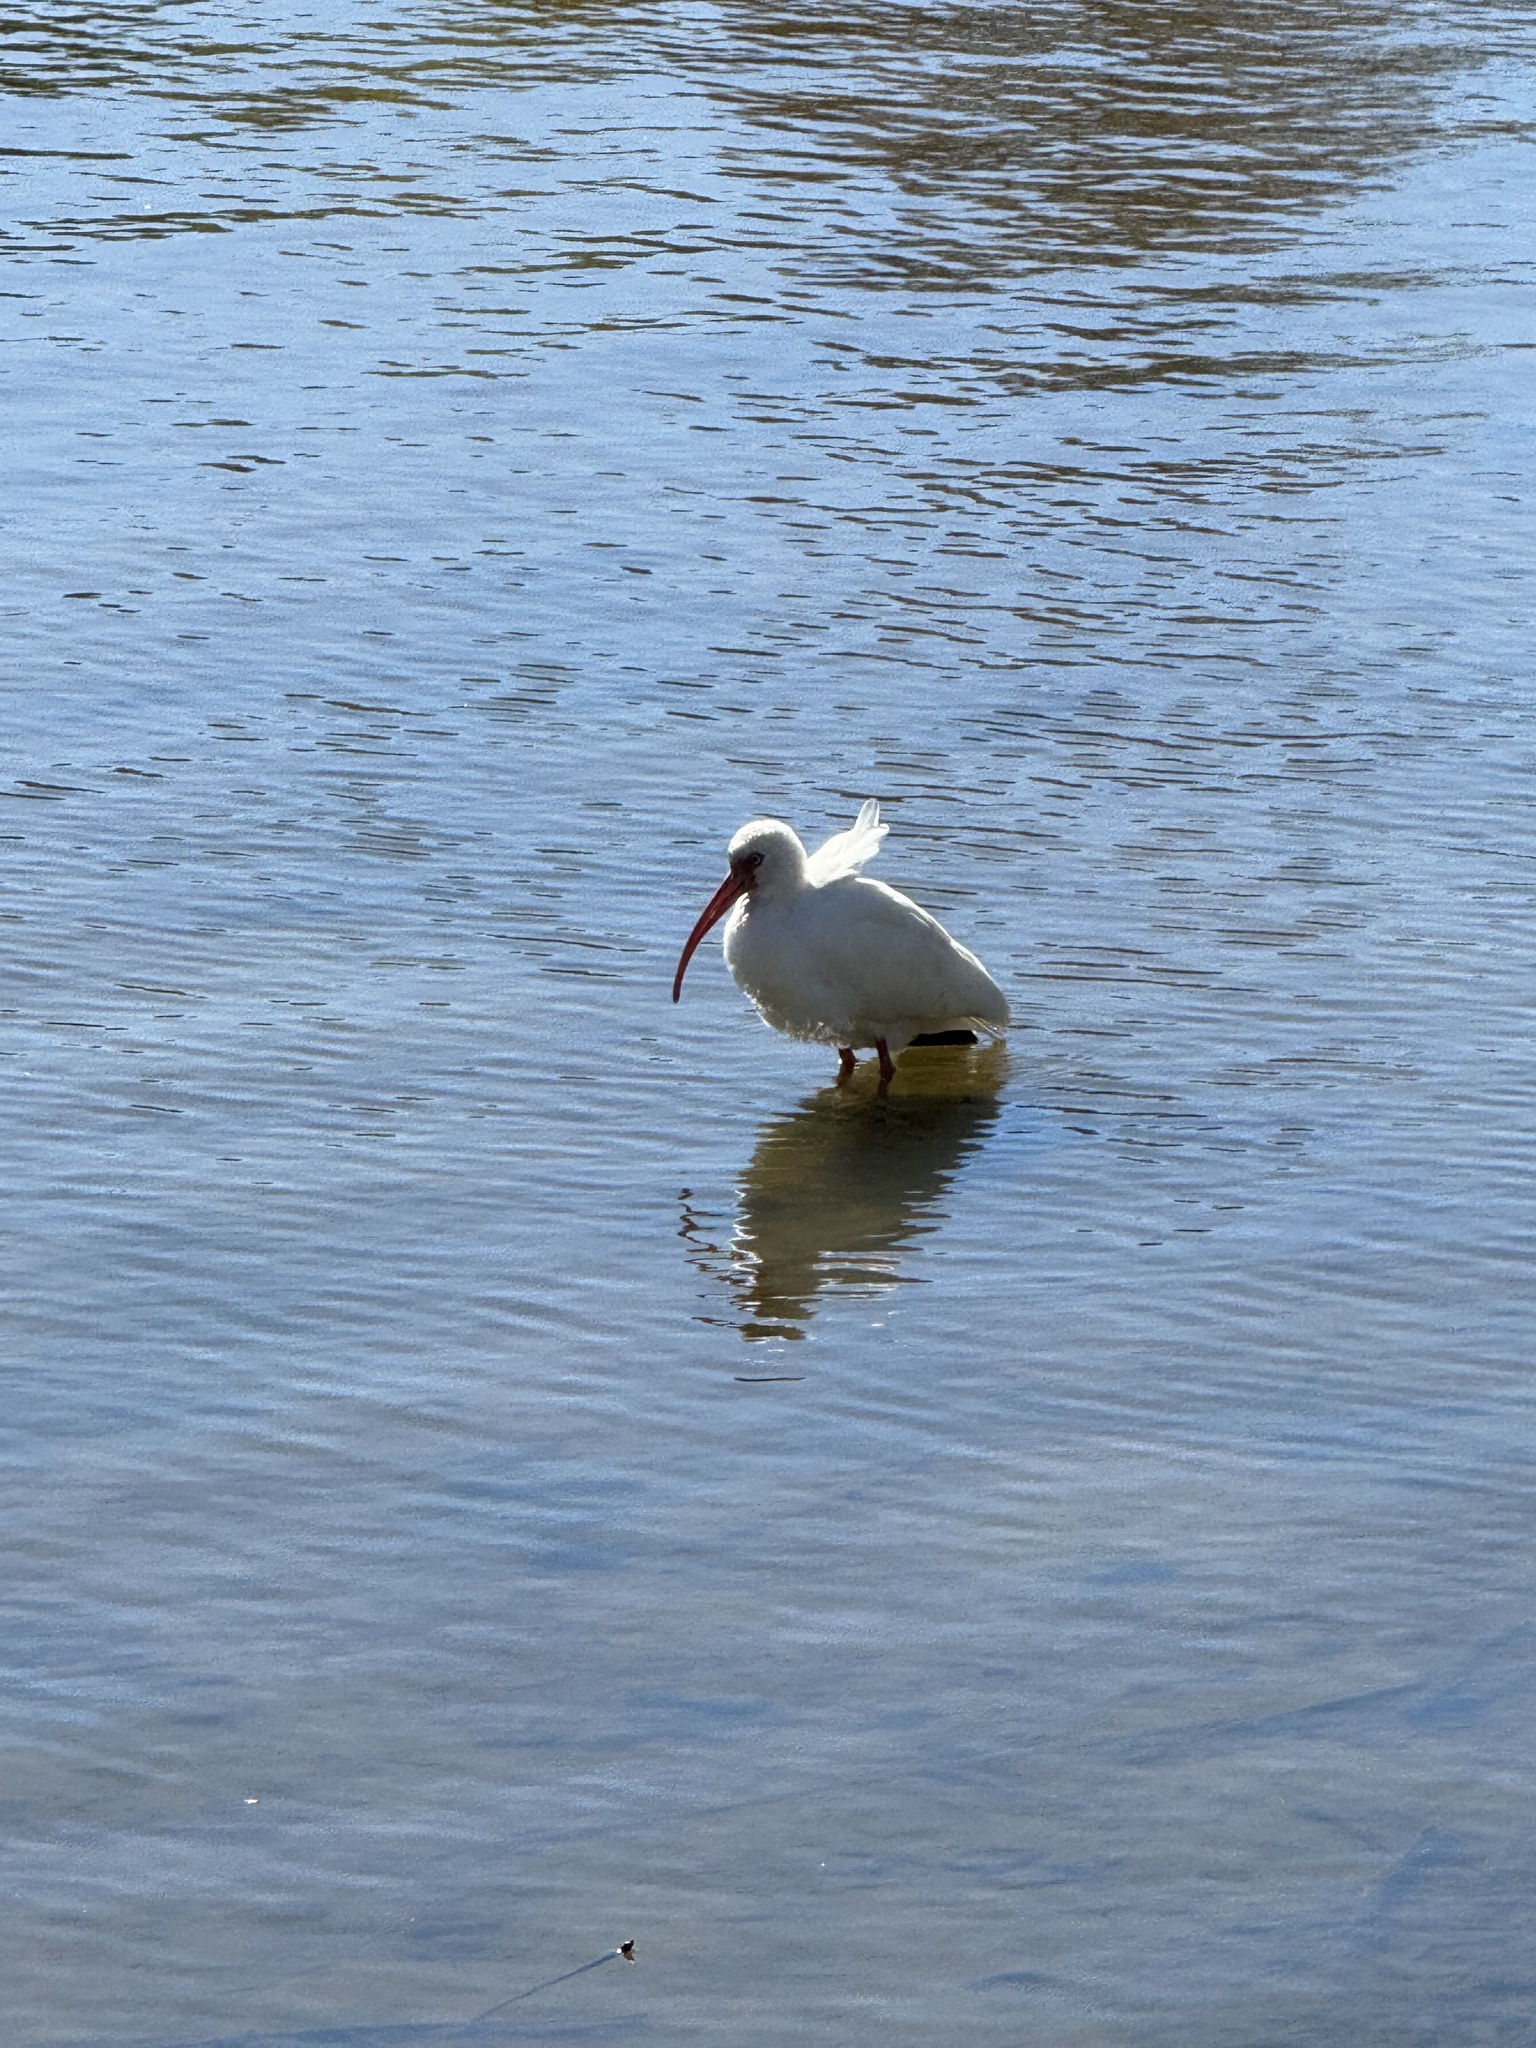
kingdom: Animalia
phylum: Chordata
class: Aves
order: Pelecaniformes
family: Threskiornithidae
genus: Eudocimus
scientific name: Eudocimus albus
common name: White ibis
